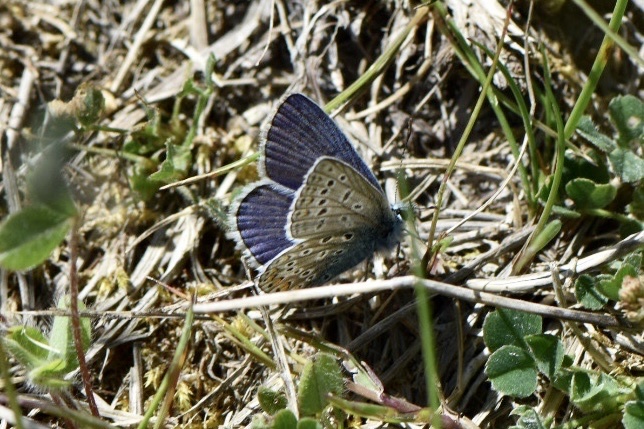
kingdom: Animalia
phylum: Arthropoda
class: Insecta
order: Lepidoptera
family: Lycaenidae
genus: Polyommatus
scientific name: Polyommatus icarus
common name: Common blue
